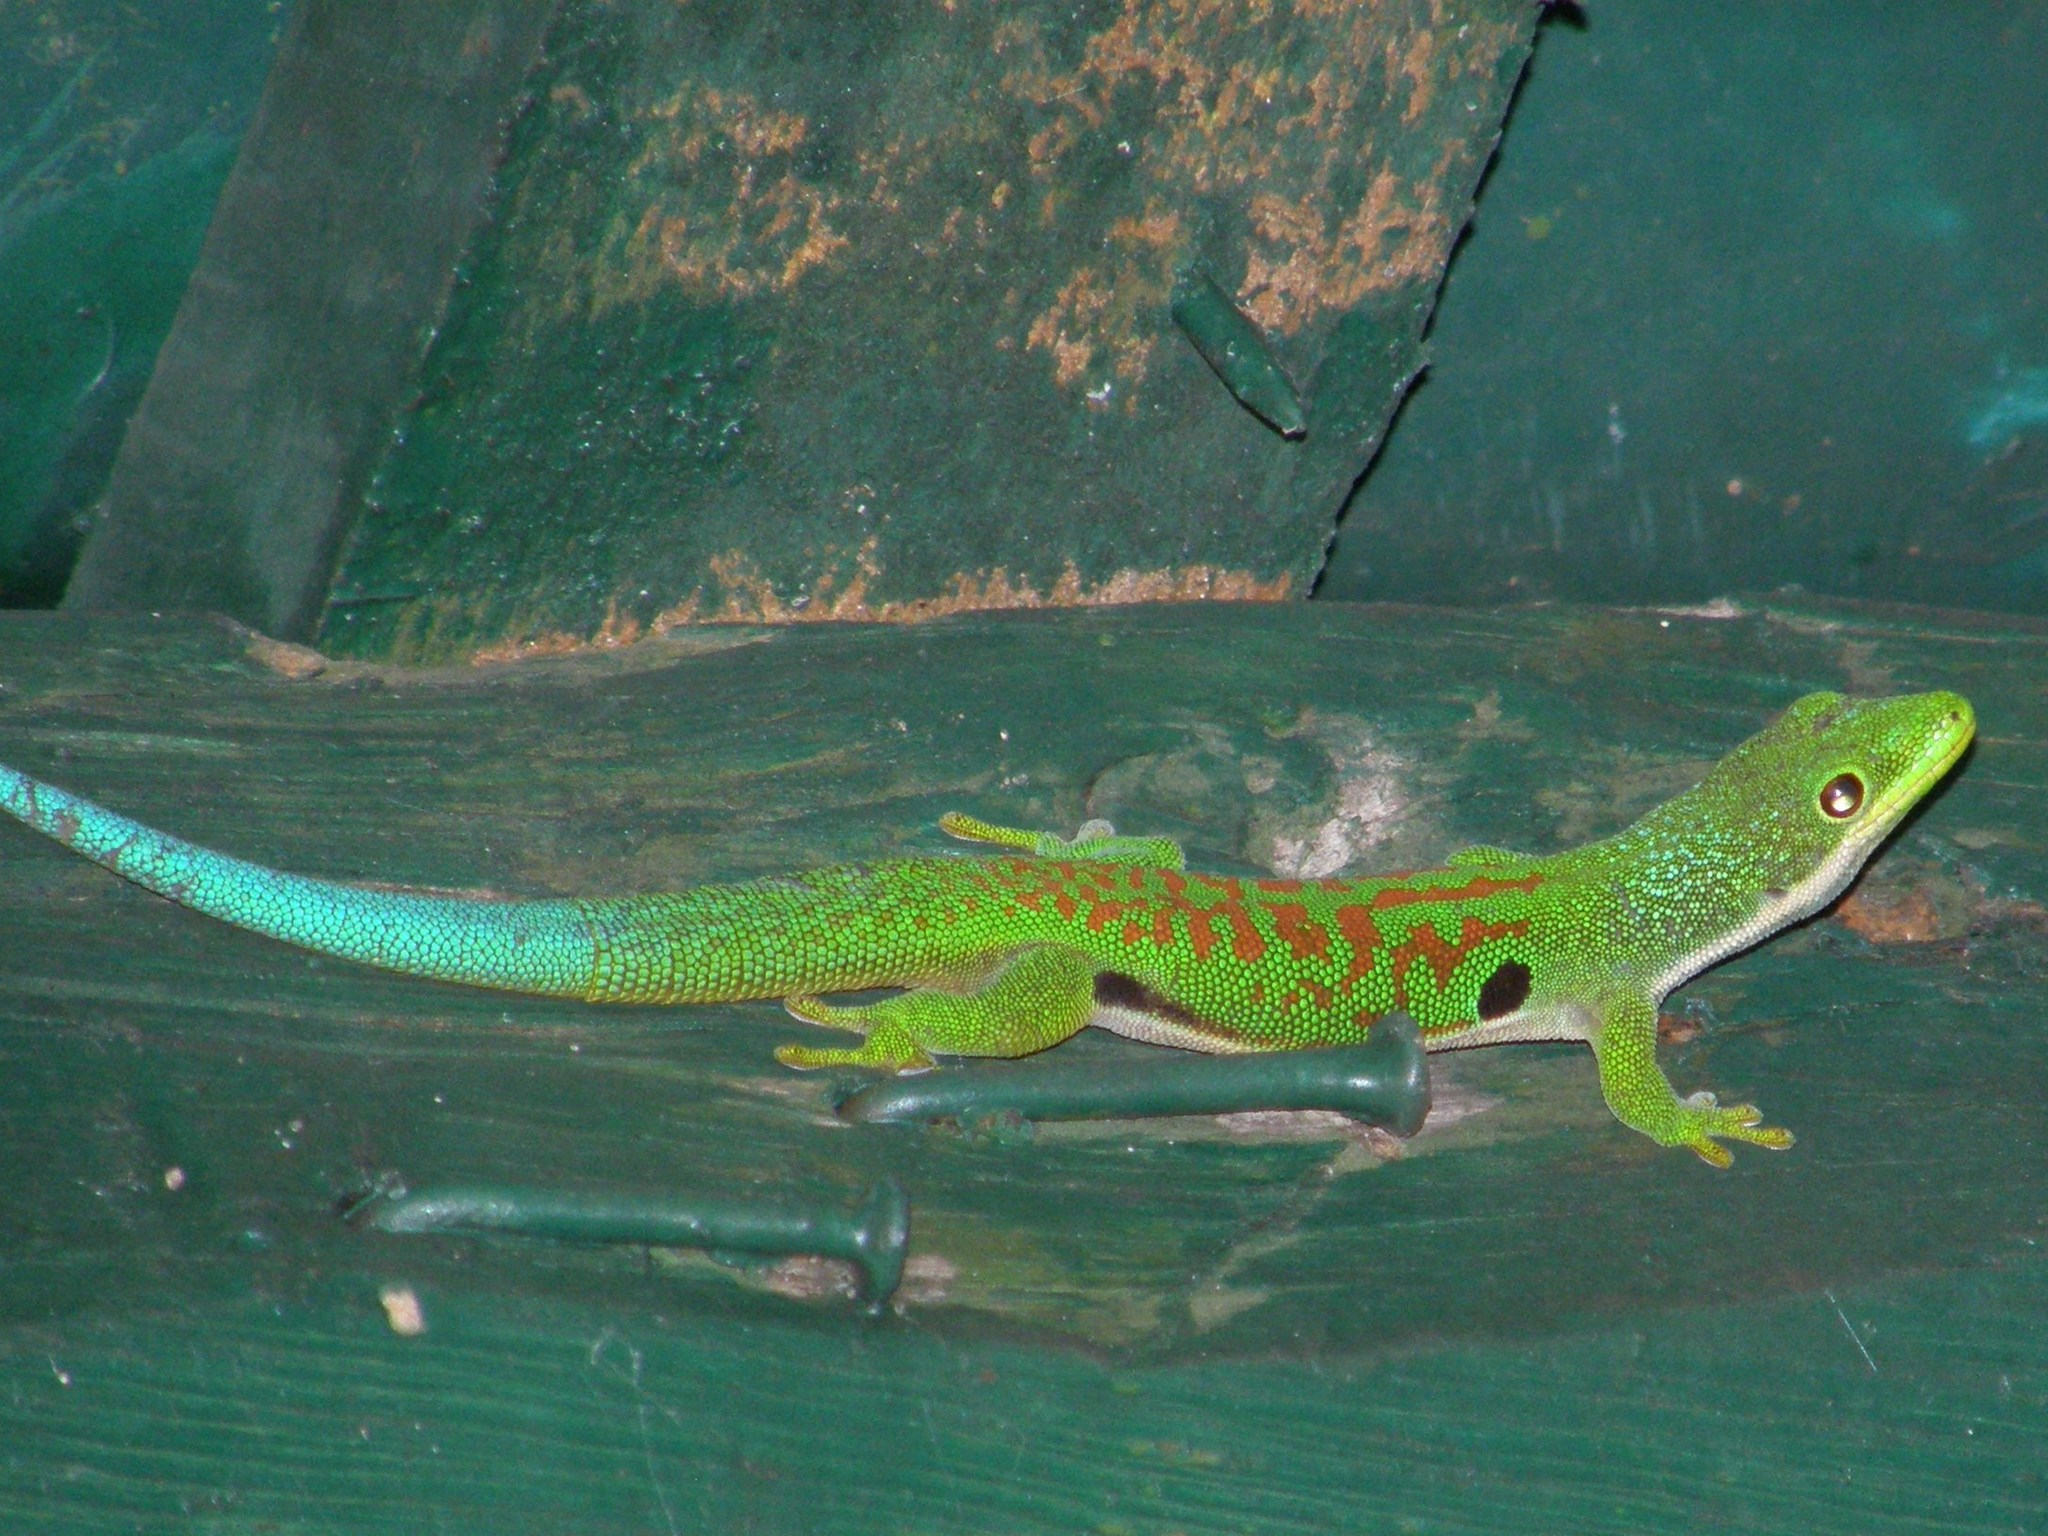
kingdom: Animalia
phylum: Chordata
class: Squamata
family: Gekkonidae
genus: Phelsuma
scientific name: Phelsuma quadriocellata
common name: Peacock day gecko
